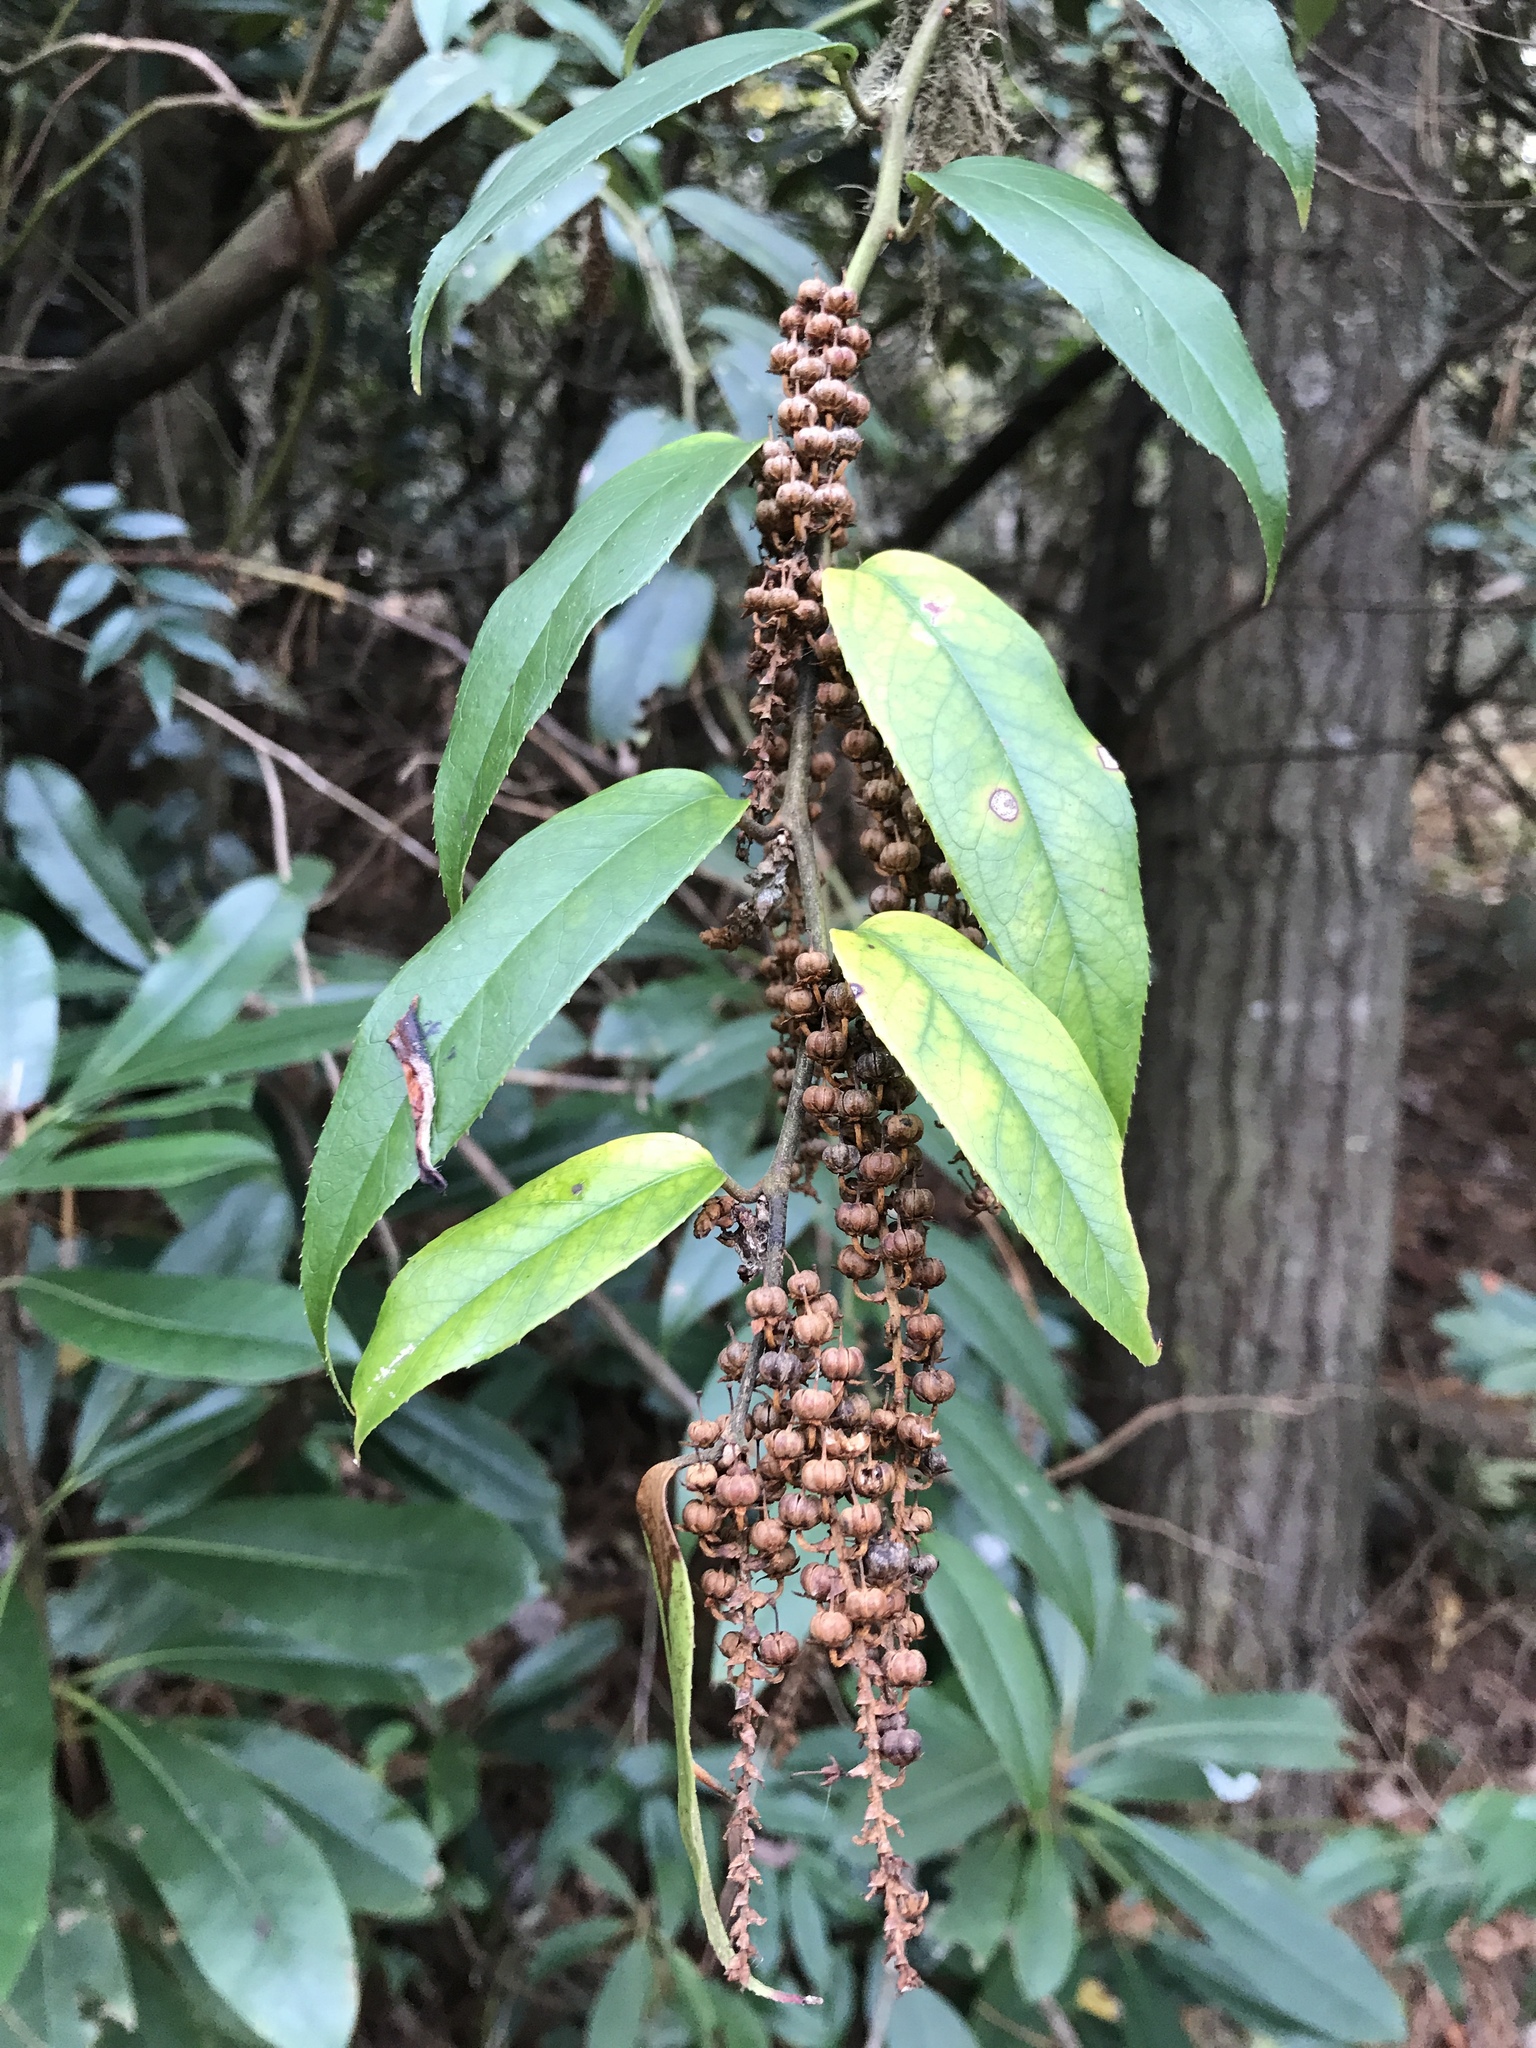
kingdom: Plantae
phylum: Tracheophyta
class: Magnoliopsida
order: Ericales
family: Ericaceae
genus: Leucothoe
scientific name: Leucothoe fontanesiana
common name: Fetterbush
